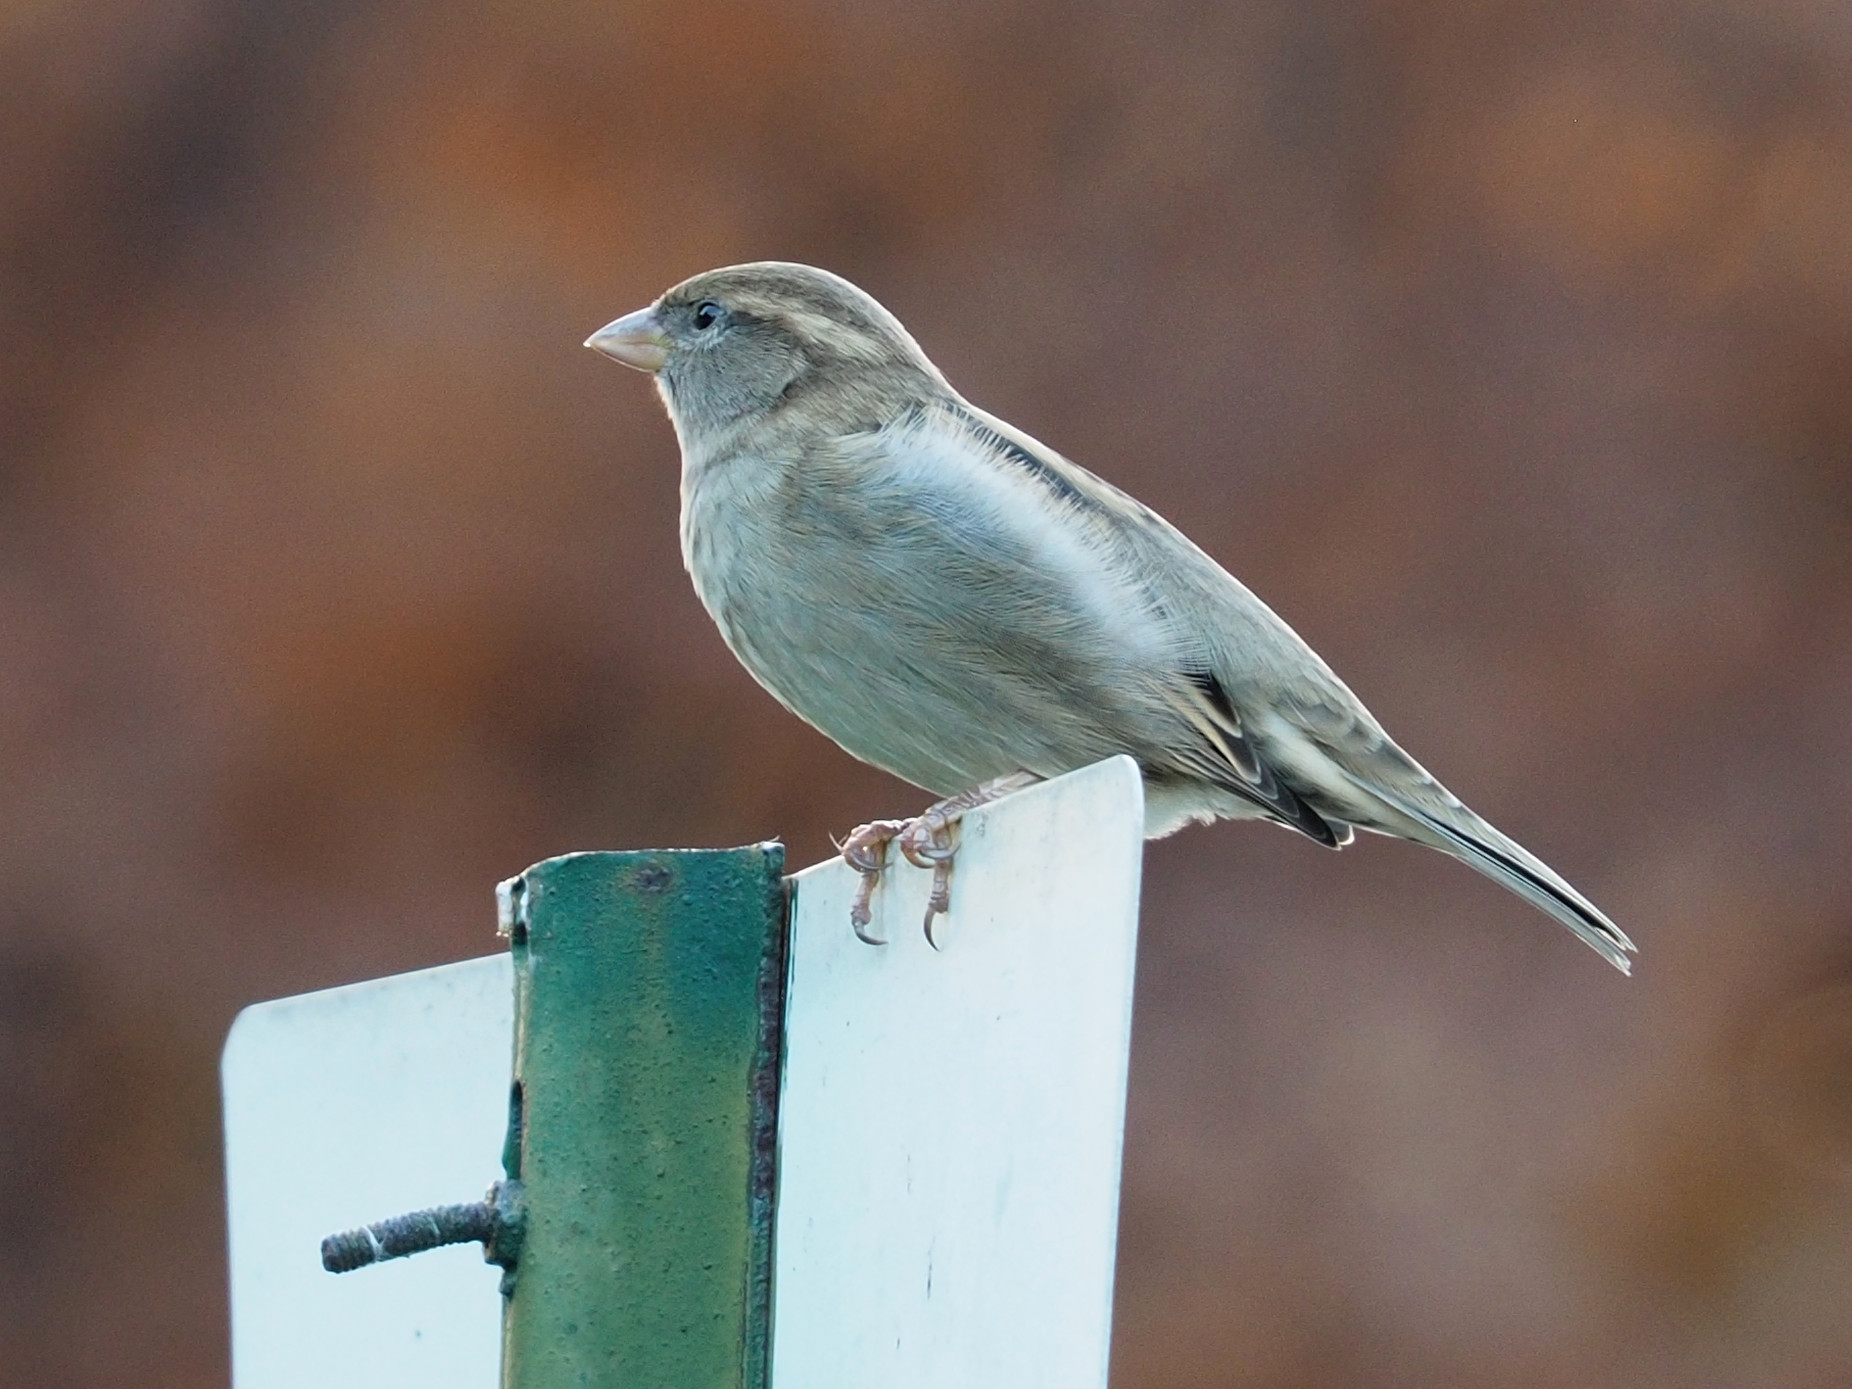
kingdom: Animalia
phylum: Chordata
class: Aves
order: Passeriformes
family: Passeridae
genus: Passer
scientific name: Passer domesticus
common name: House sparrow
